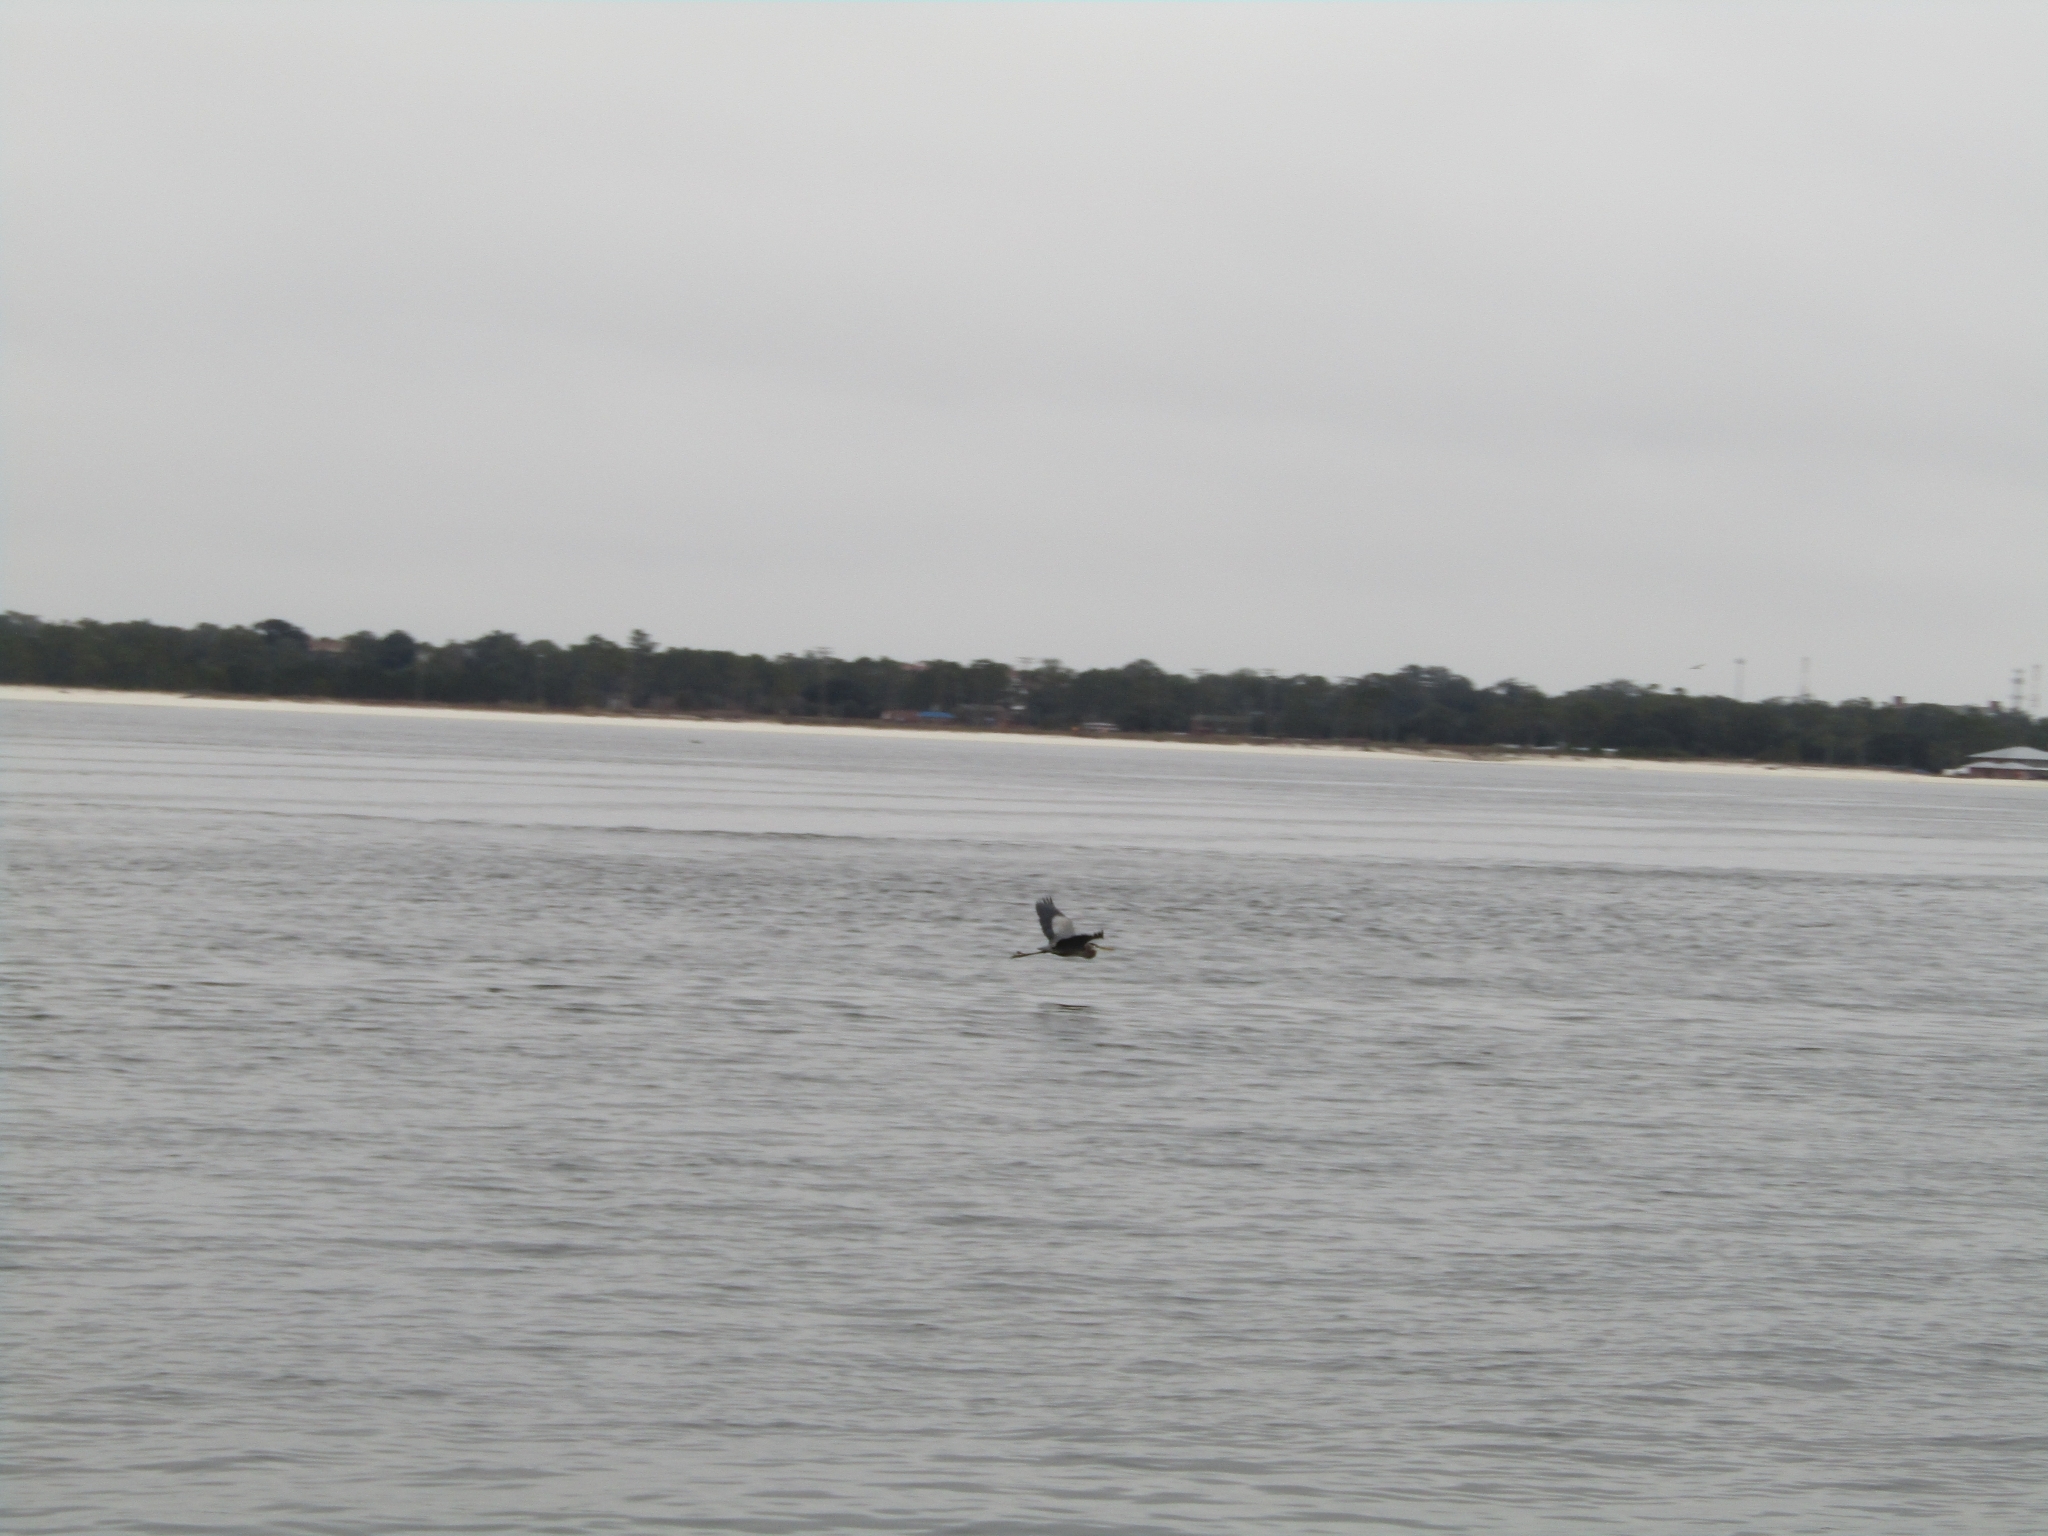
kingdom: Animalia
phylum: Chordata
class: Aves
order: Pelecaniformes
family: Ardeidae
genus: Ardea
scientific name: Ardea herodias
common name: Great blue heron
